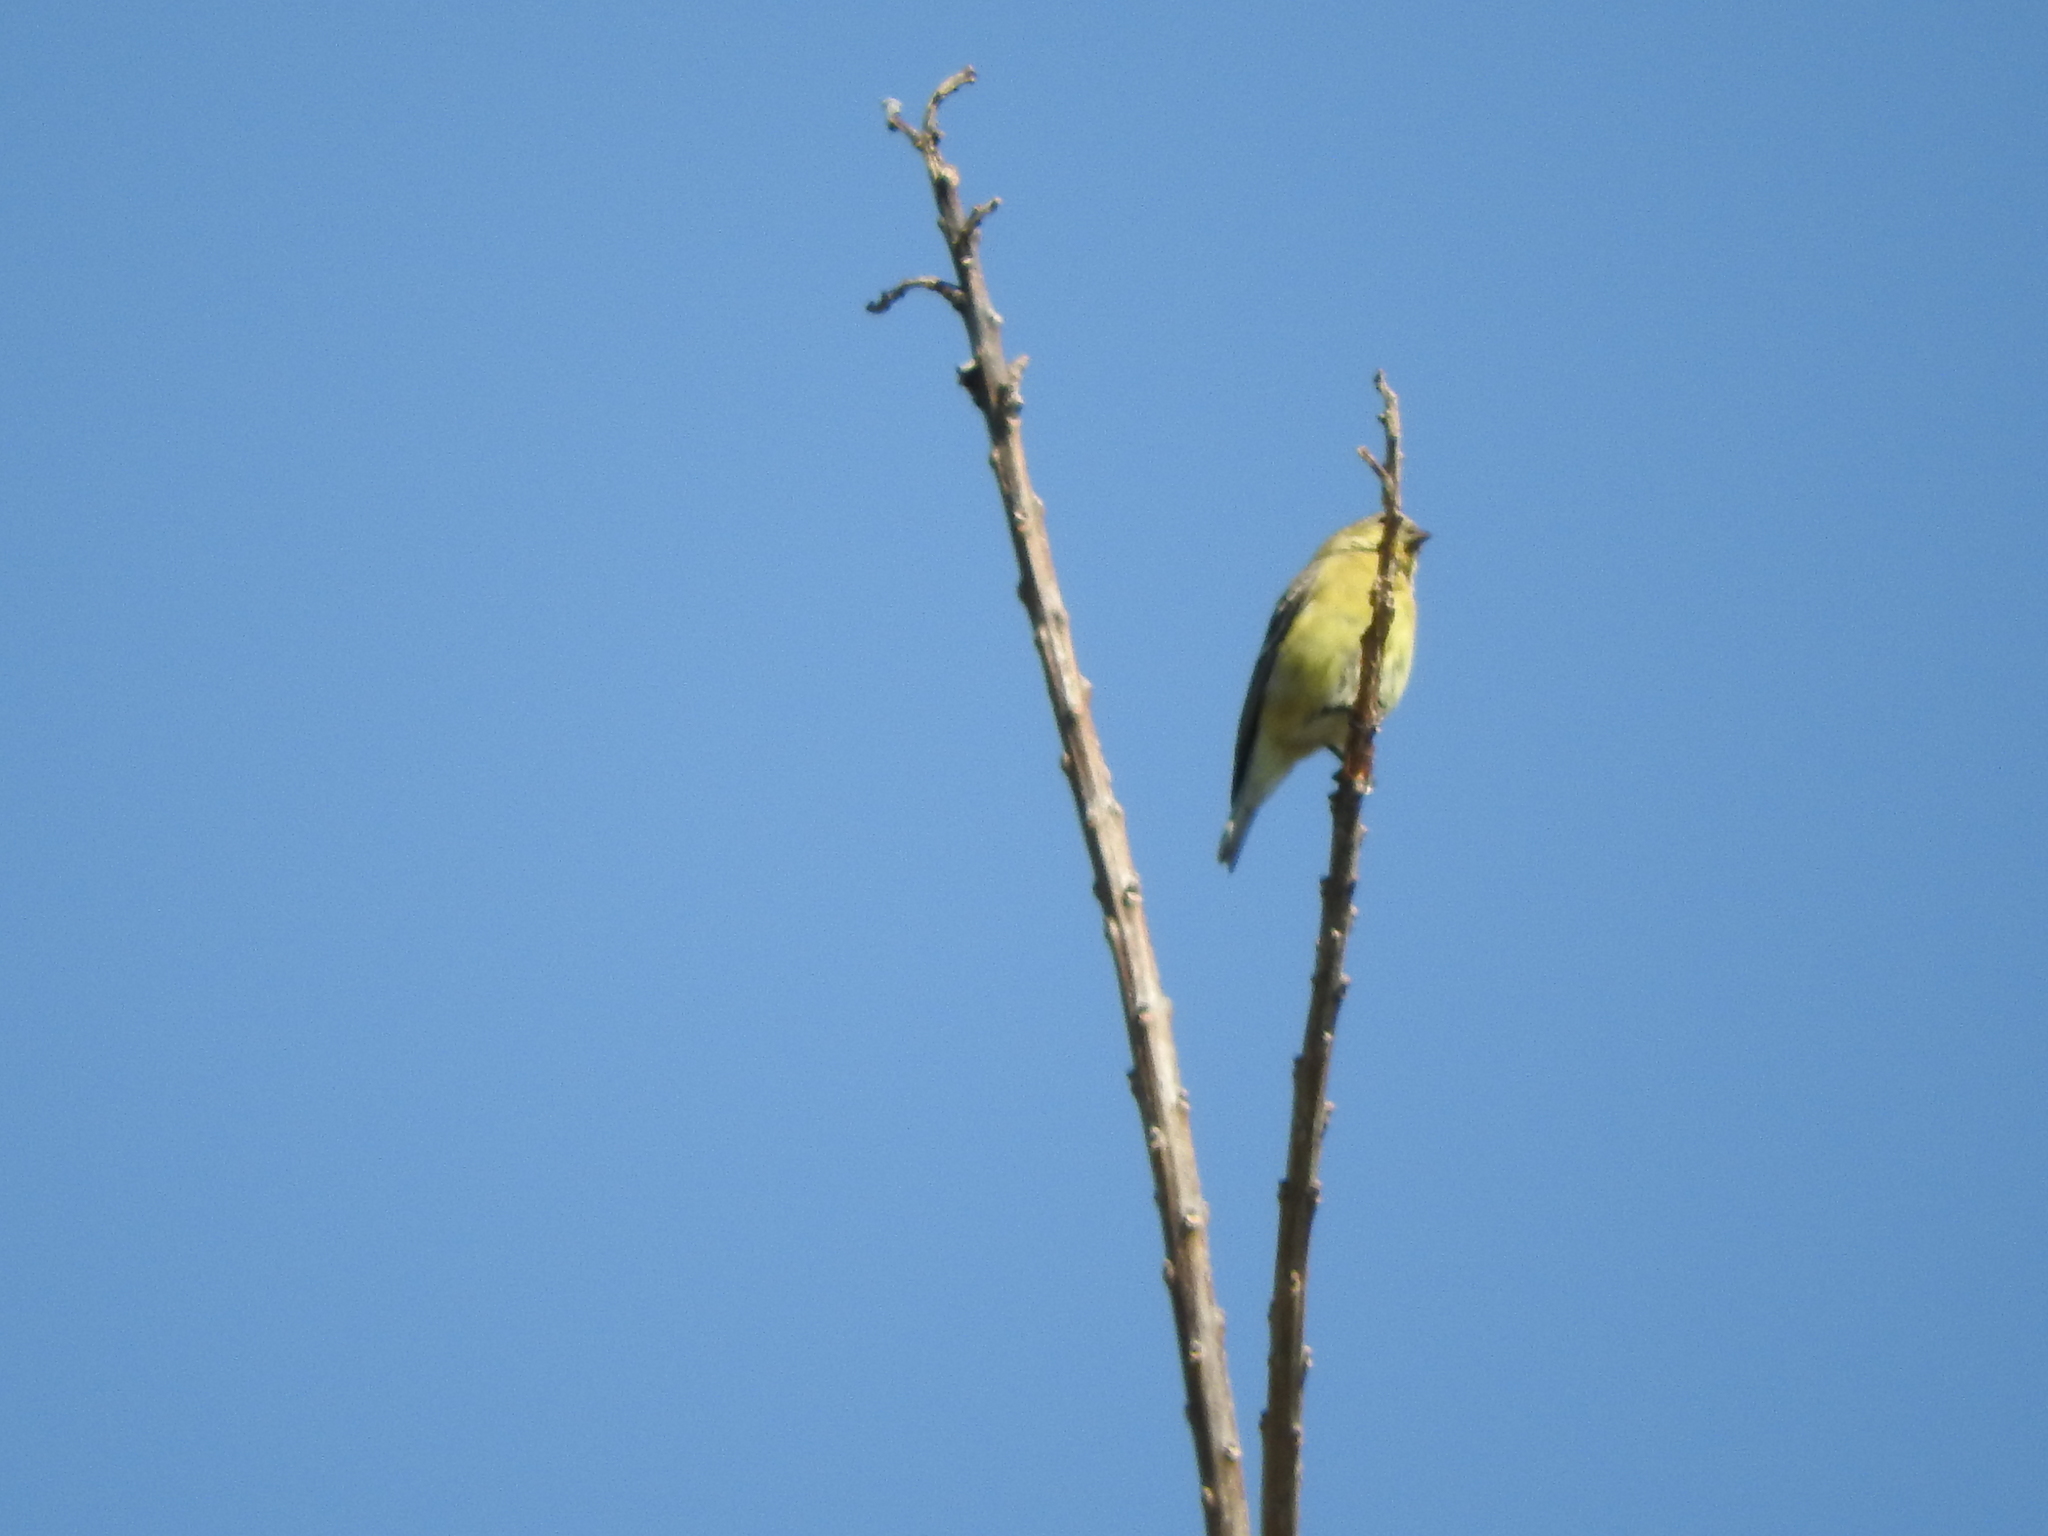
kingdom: Animalia
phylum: Chordata
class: Aves
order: Passeriformes
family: Fringillidae
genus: Spinus
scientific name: Spinus psaltria
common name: Lesser goldfinch
